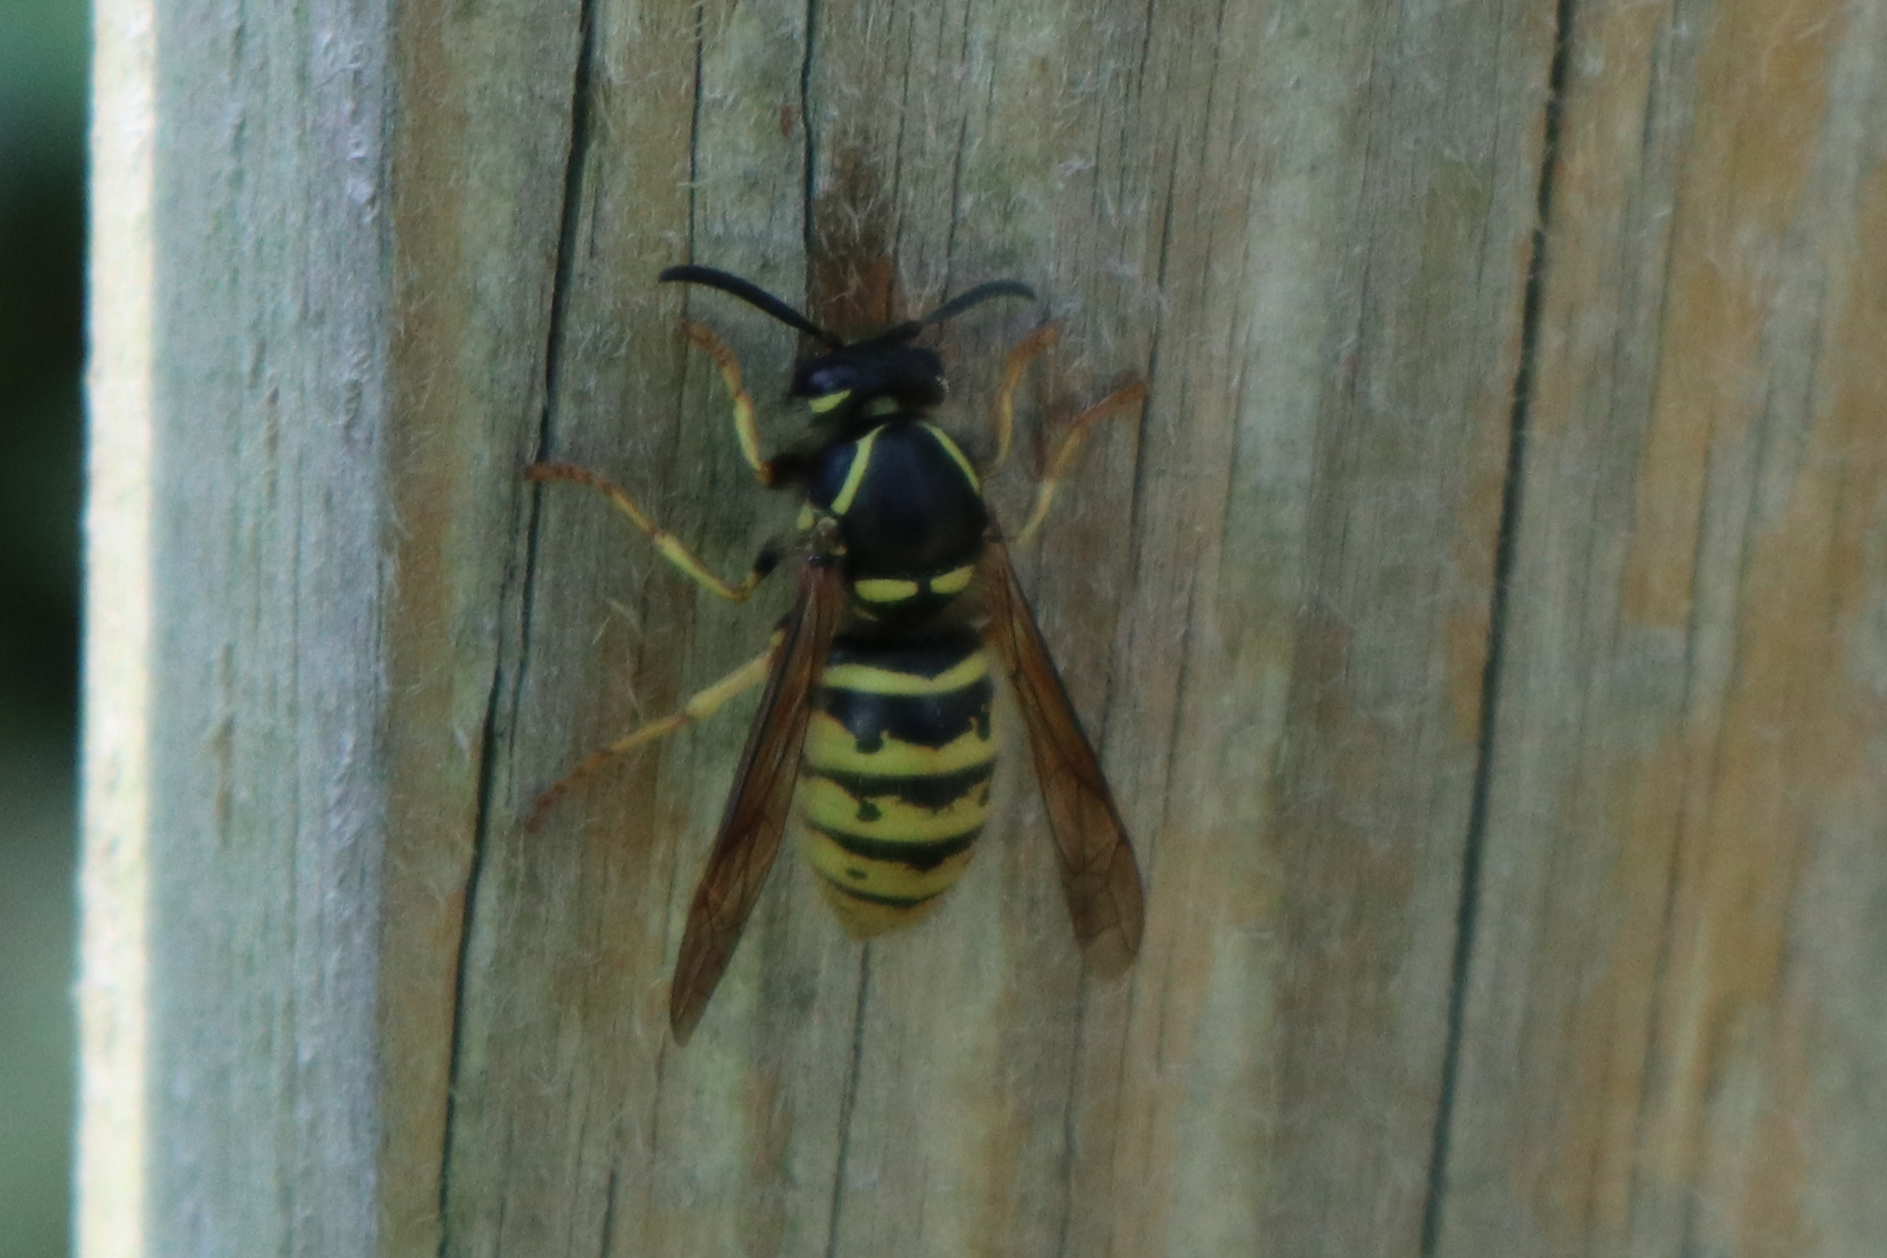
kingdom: Animalia
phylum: Arthropoda
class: Insecta
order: Hymenoptera
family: Vespidae
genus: Dolichovespula
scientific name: Dolichovespula saxonica
